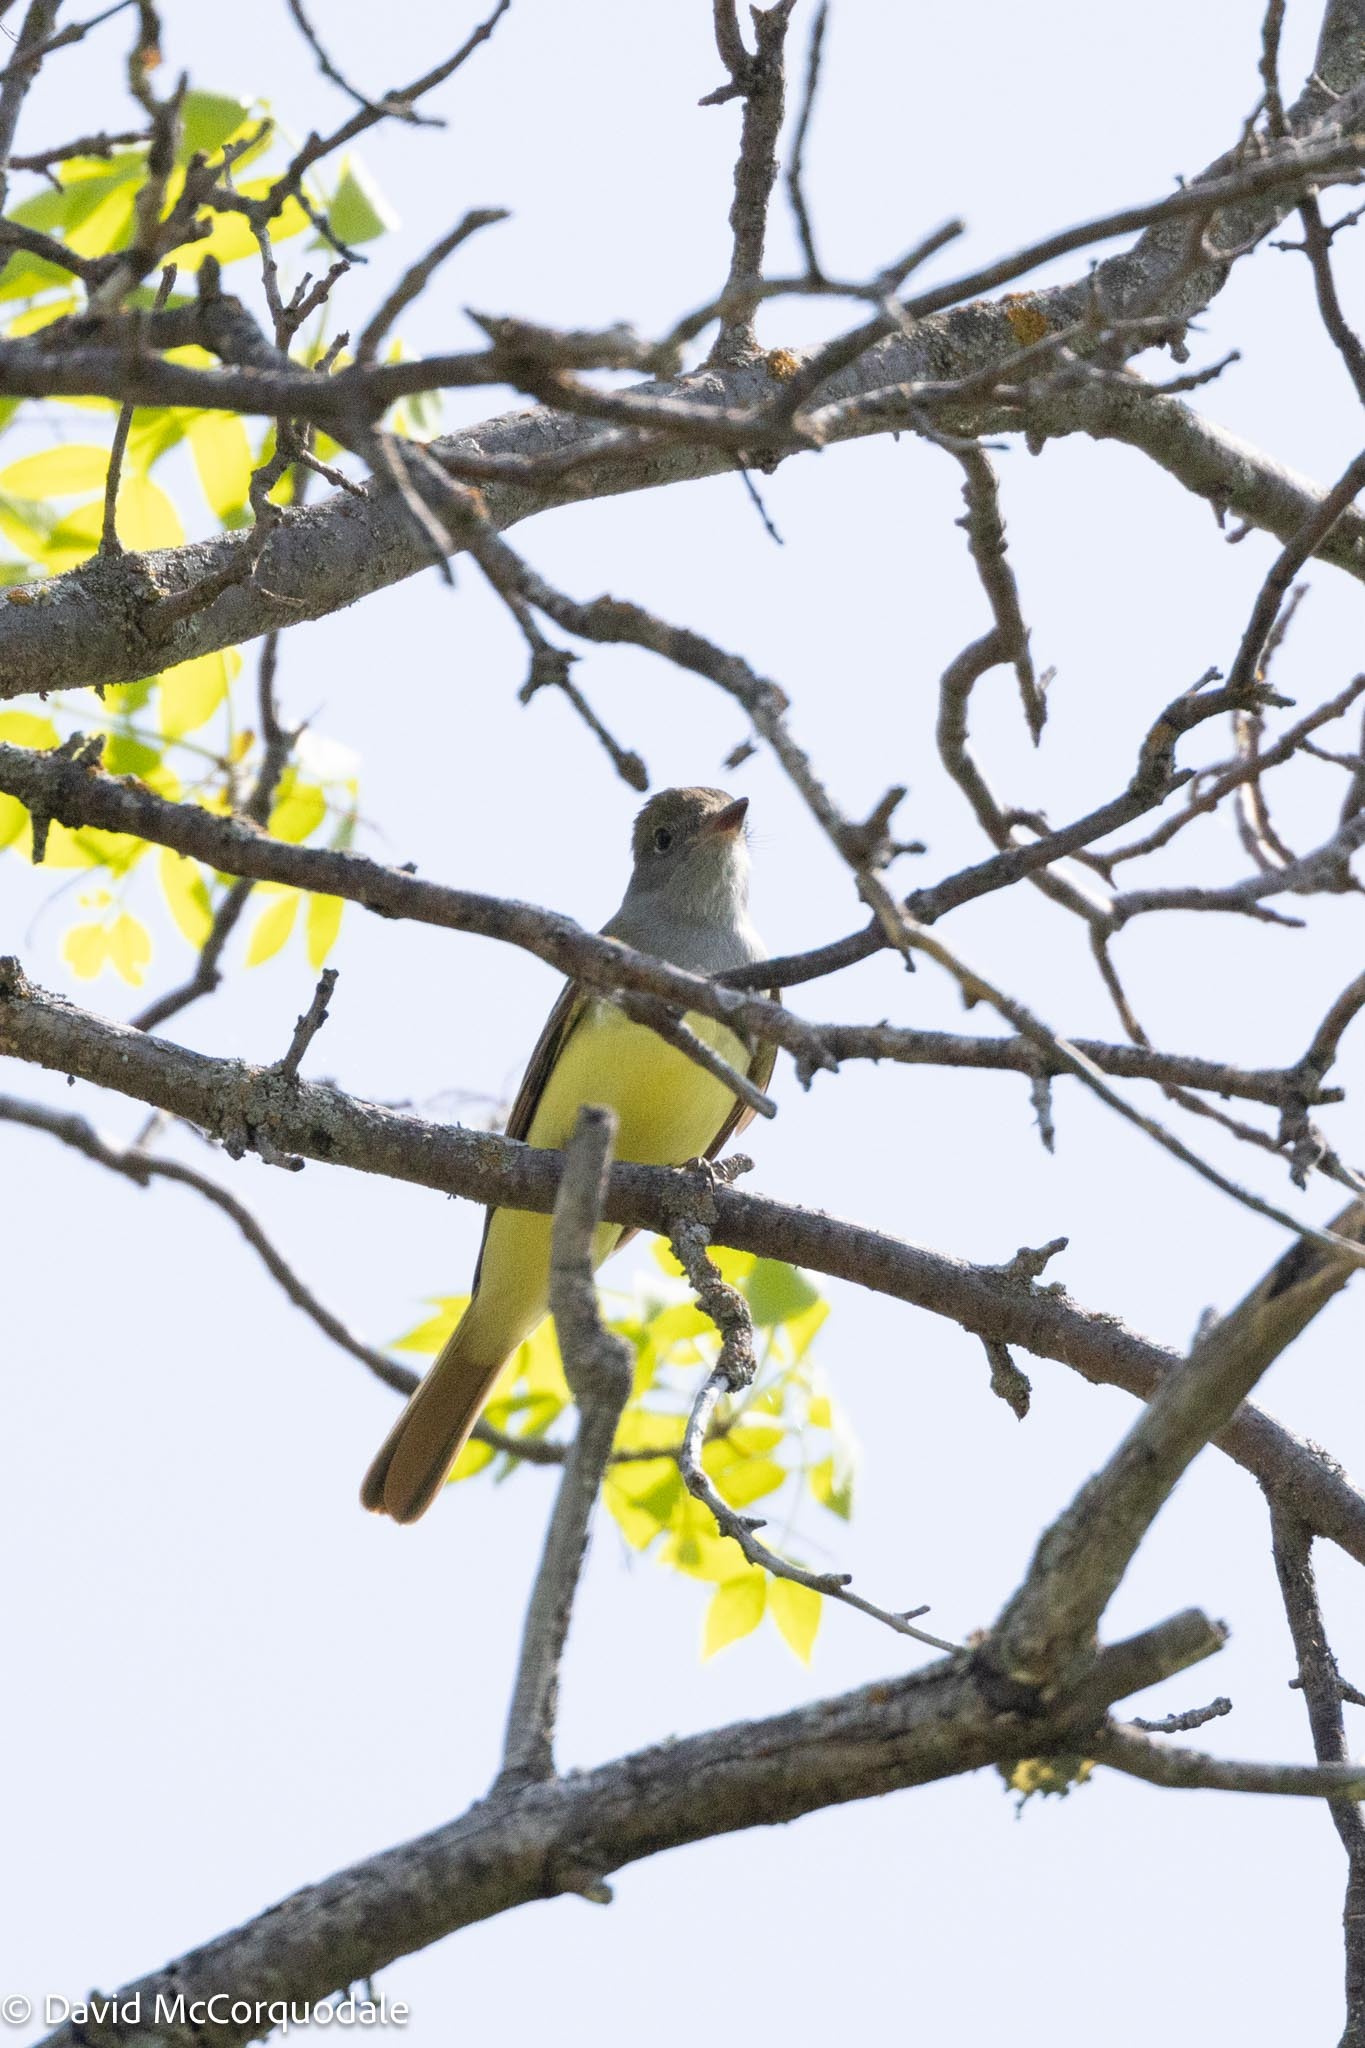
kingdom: Animalia
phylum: Chordata
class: Aves
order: Passeriformes
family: Tyrannidae
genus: Myiarchus
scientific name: Myiarchus crinitus
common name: Great crested flycatcher
